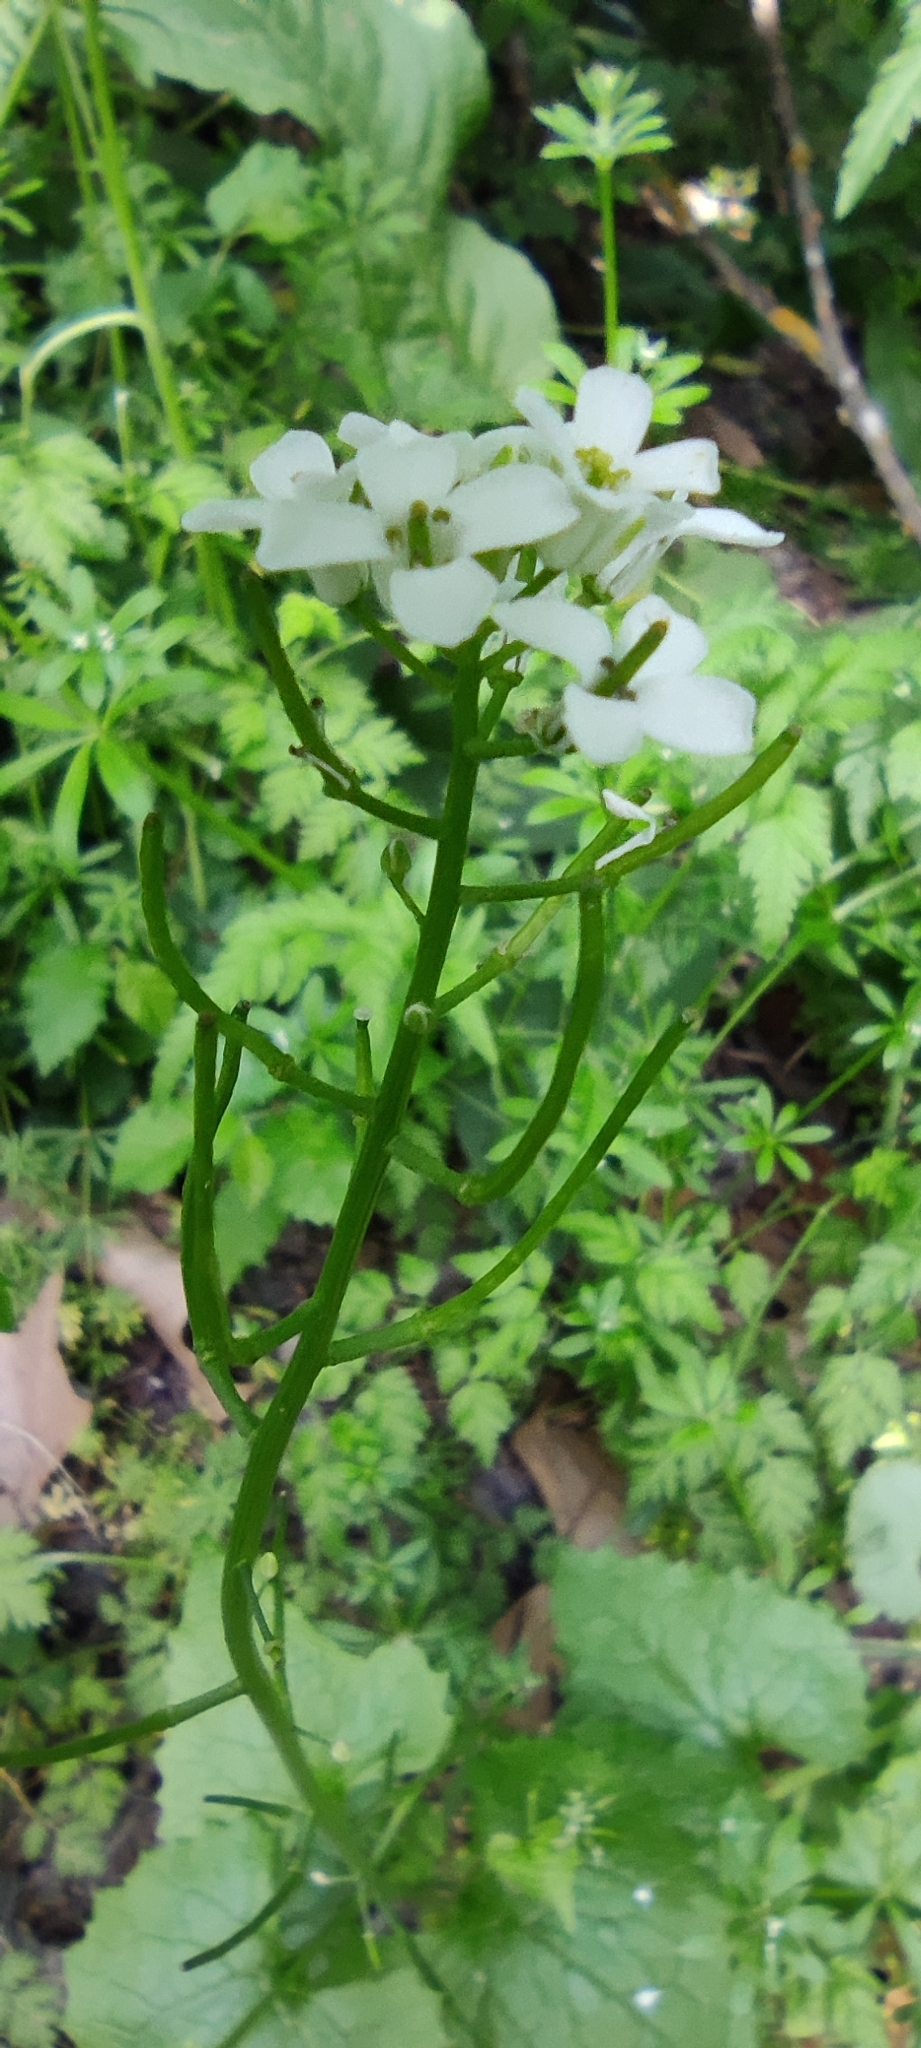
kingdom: Plantae
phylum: Tracheophyta
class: Magnoliopsida
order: Brassicales
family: Brassicaceae
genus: Alliaria
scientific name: Alliaria petiolata
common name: Garlic mustard
